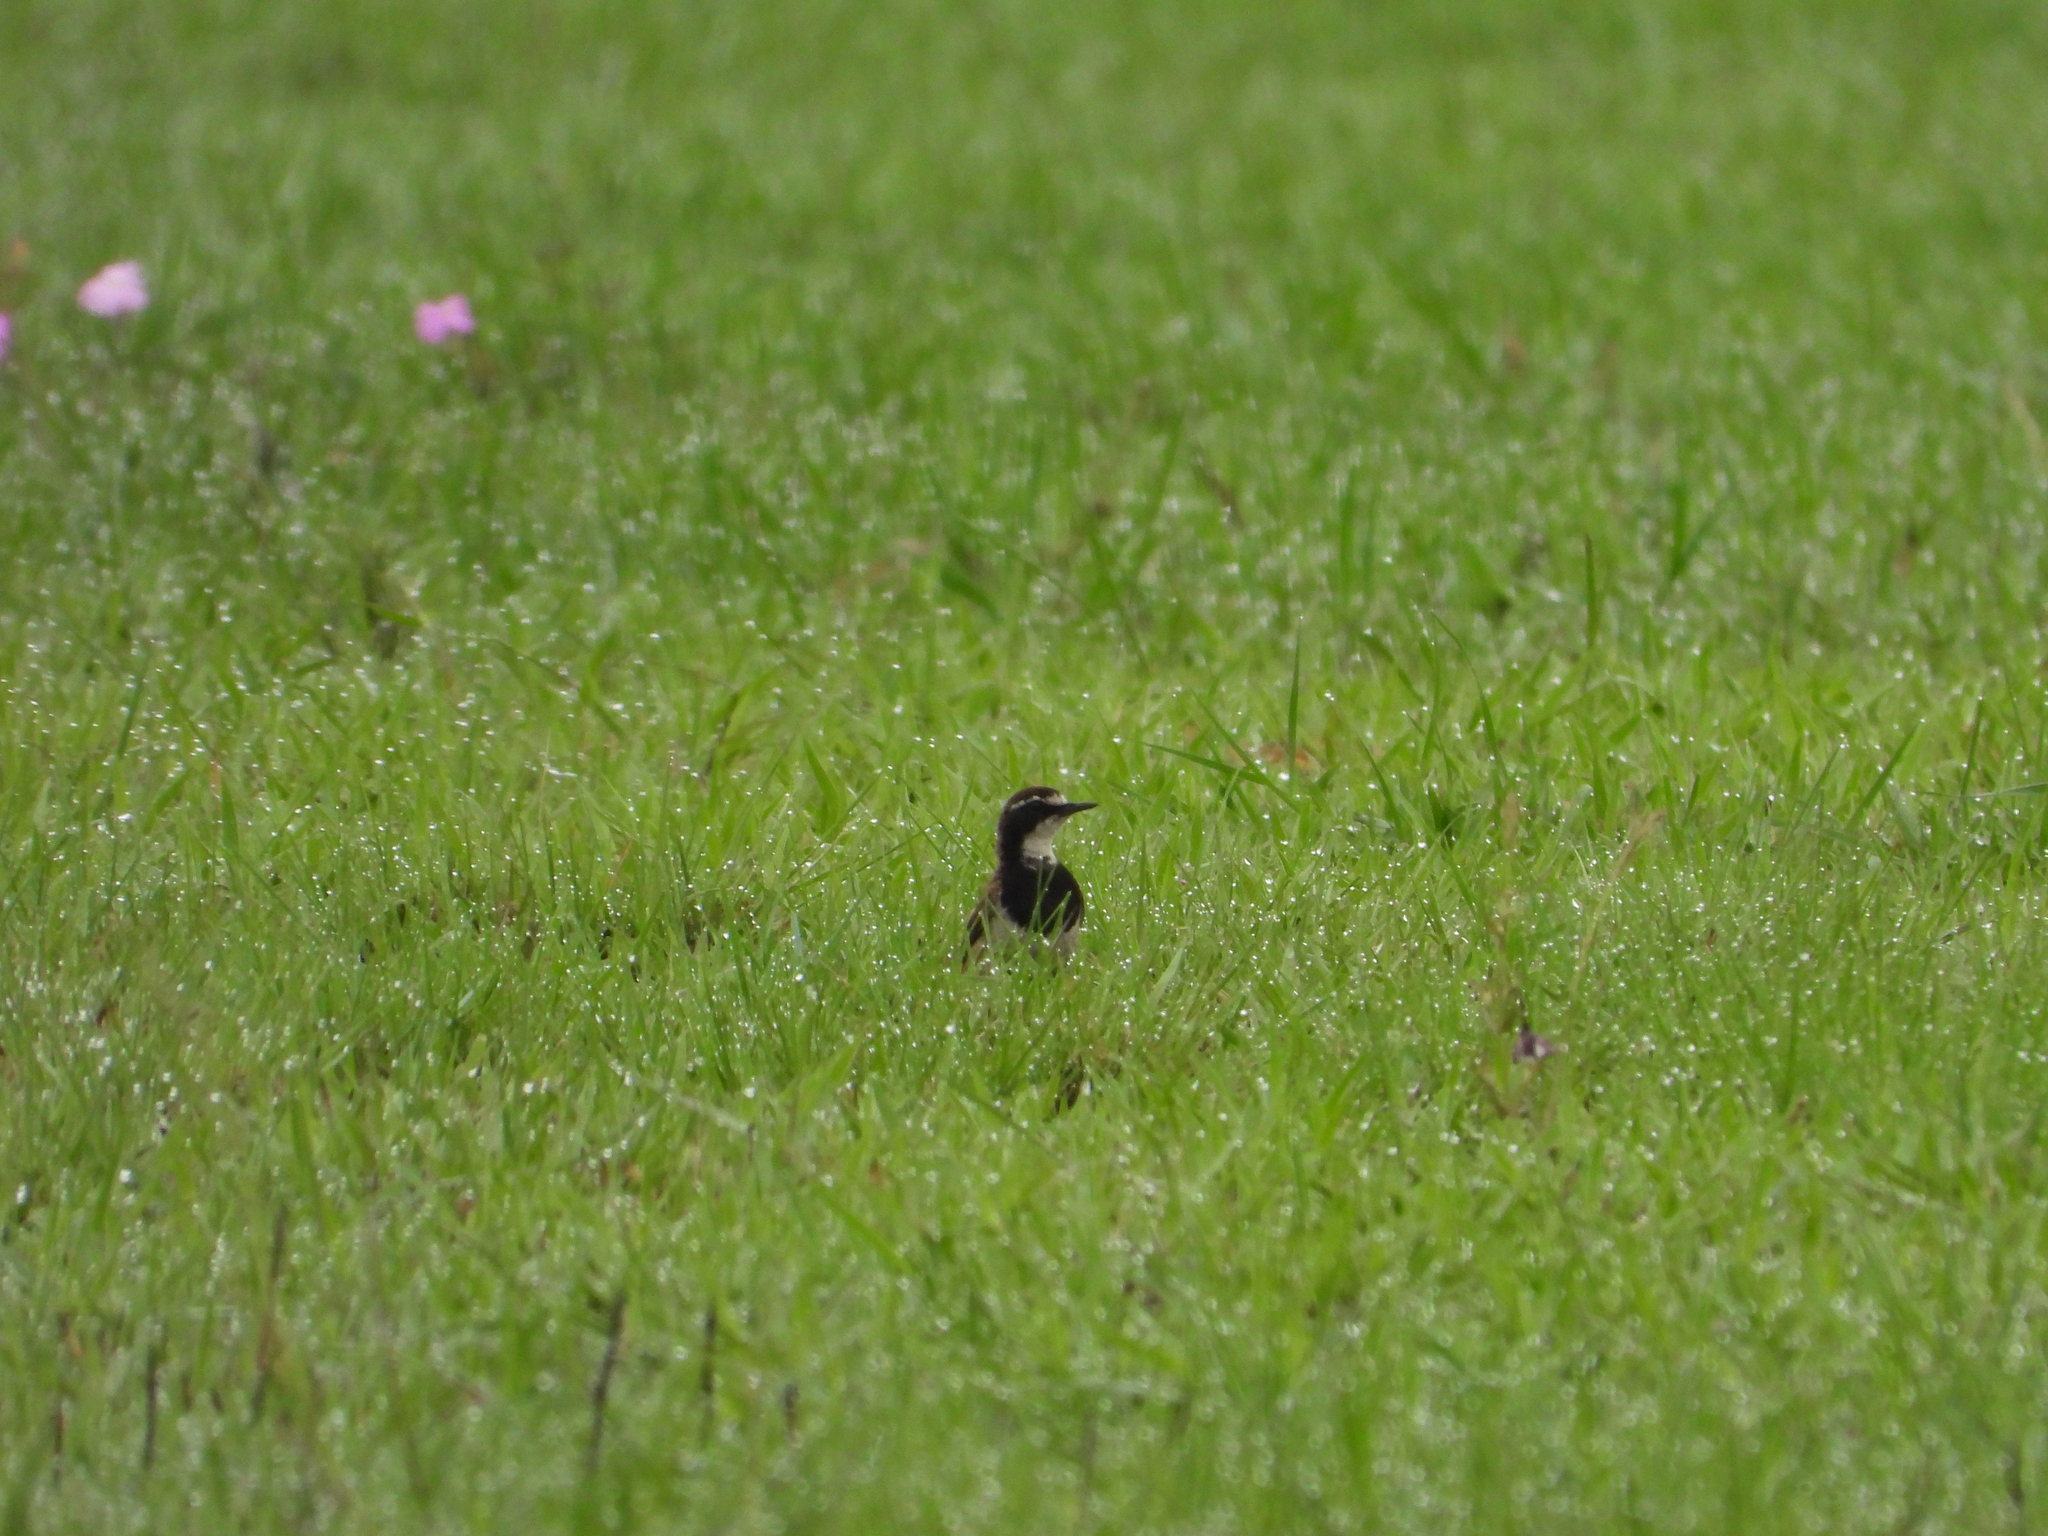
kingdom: Animalia
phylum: Chordata
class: Aves
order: Passeriformes
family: Muscicapidae
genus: Oenanthe
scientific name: Oenanthe pileata
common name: Capped wheatear
